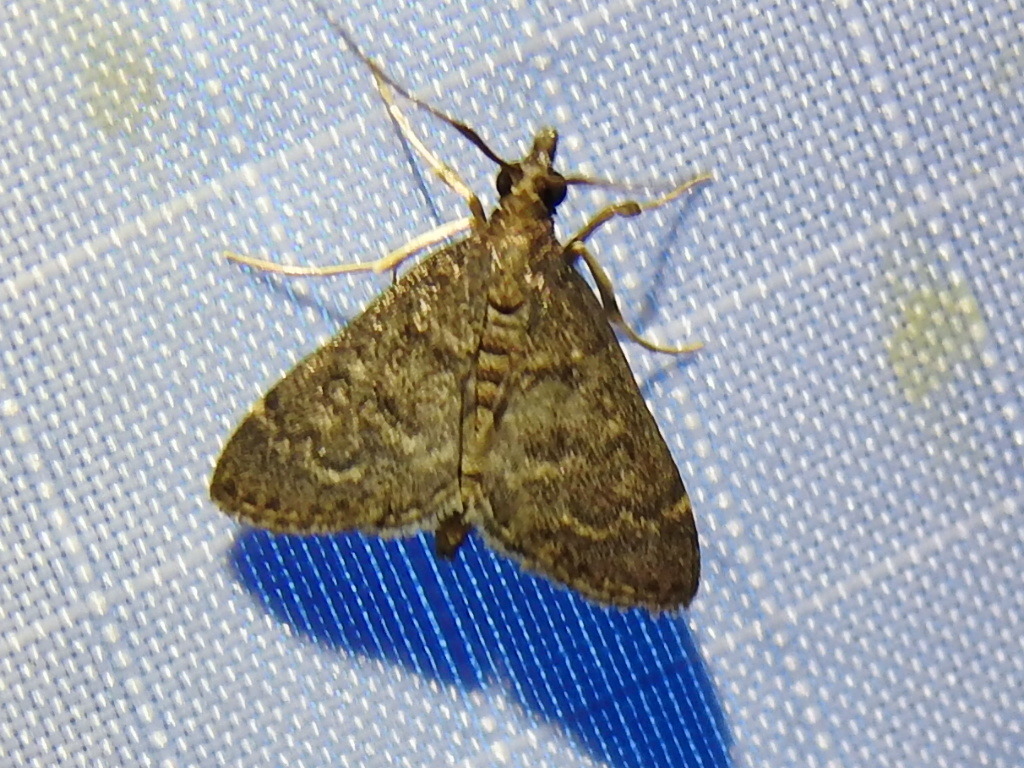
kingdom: Animalia
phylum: Arthropoda
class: Insecta
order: Lepidoptera
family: Crambidae
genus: Steniodes
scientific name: Steniodes declivalis
